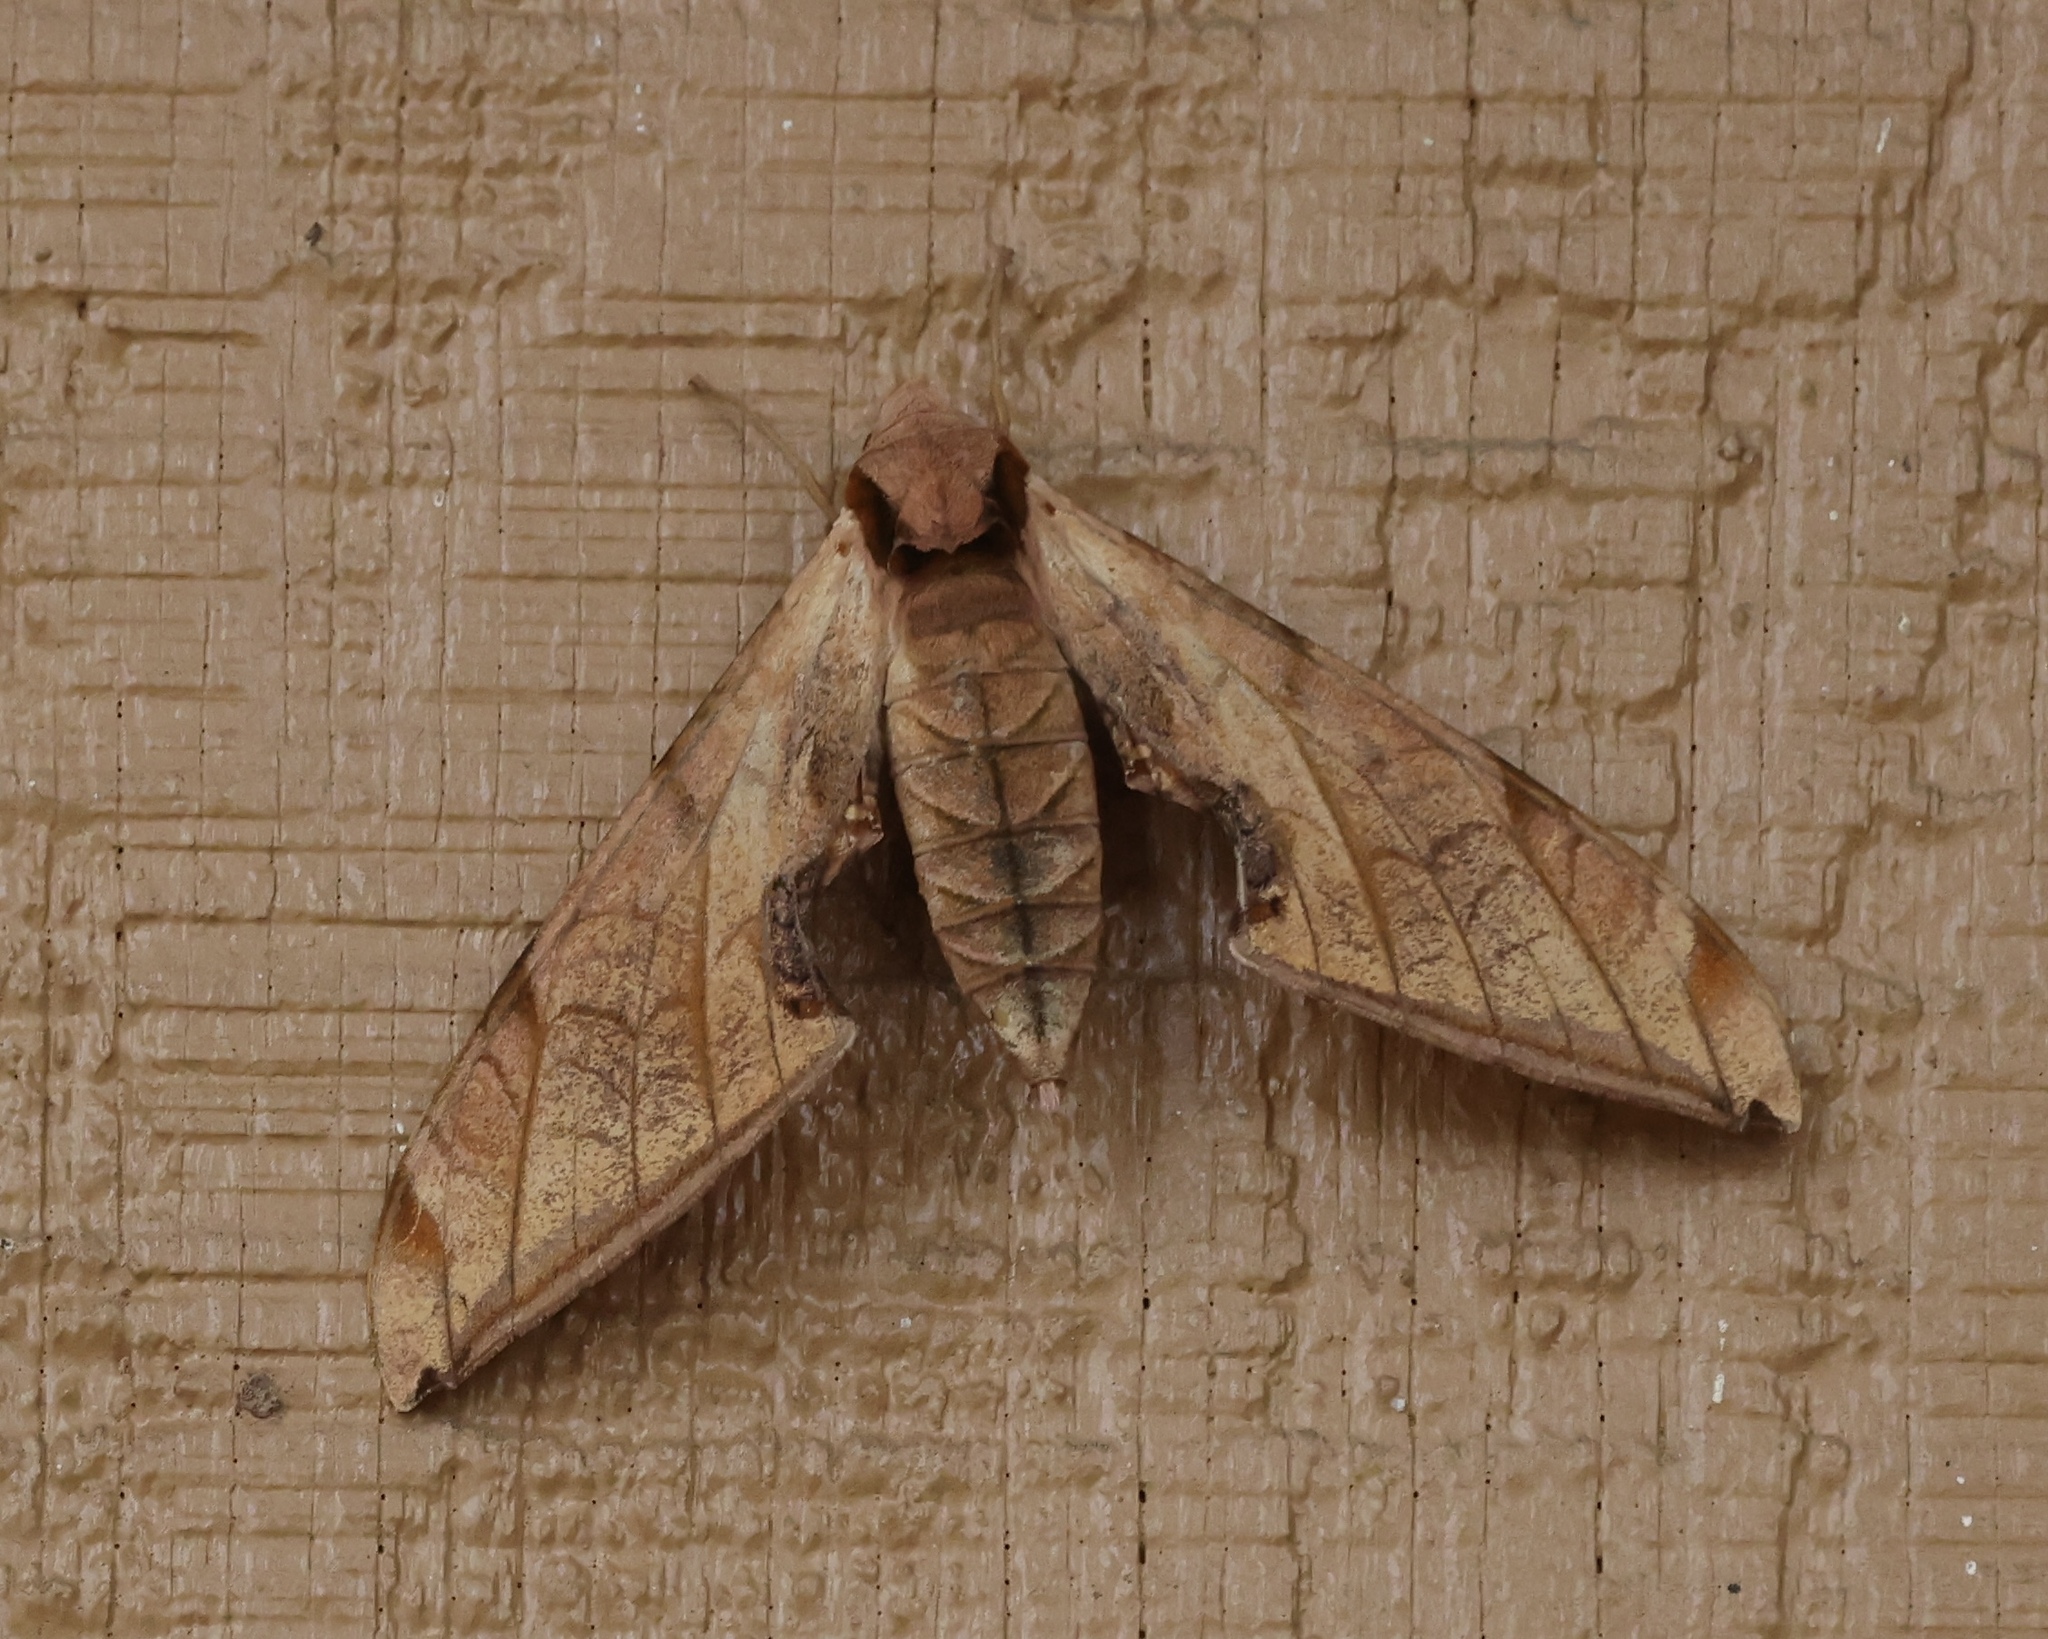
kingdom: Animalia
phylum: Arthropoda
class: Insecta
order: Lepidoptera
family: Sphingidae
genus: Protambulyx
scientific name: Protambulyx strigilis
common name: Streaked sphinx
